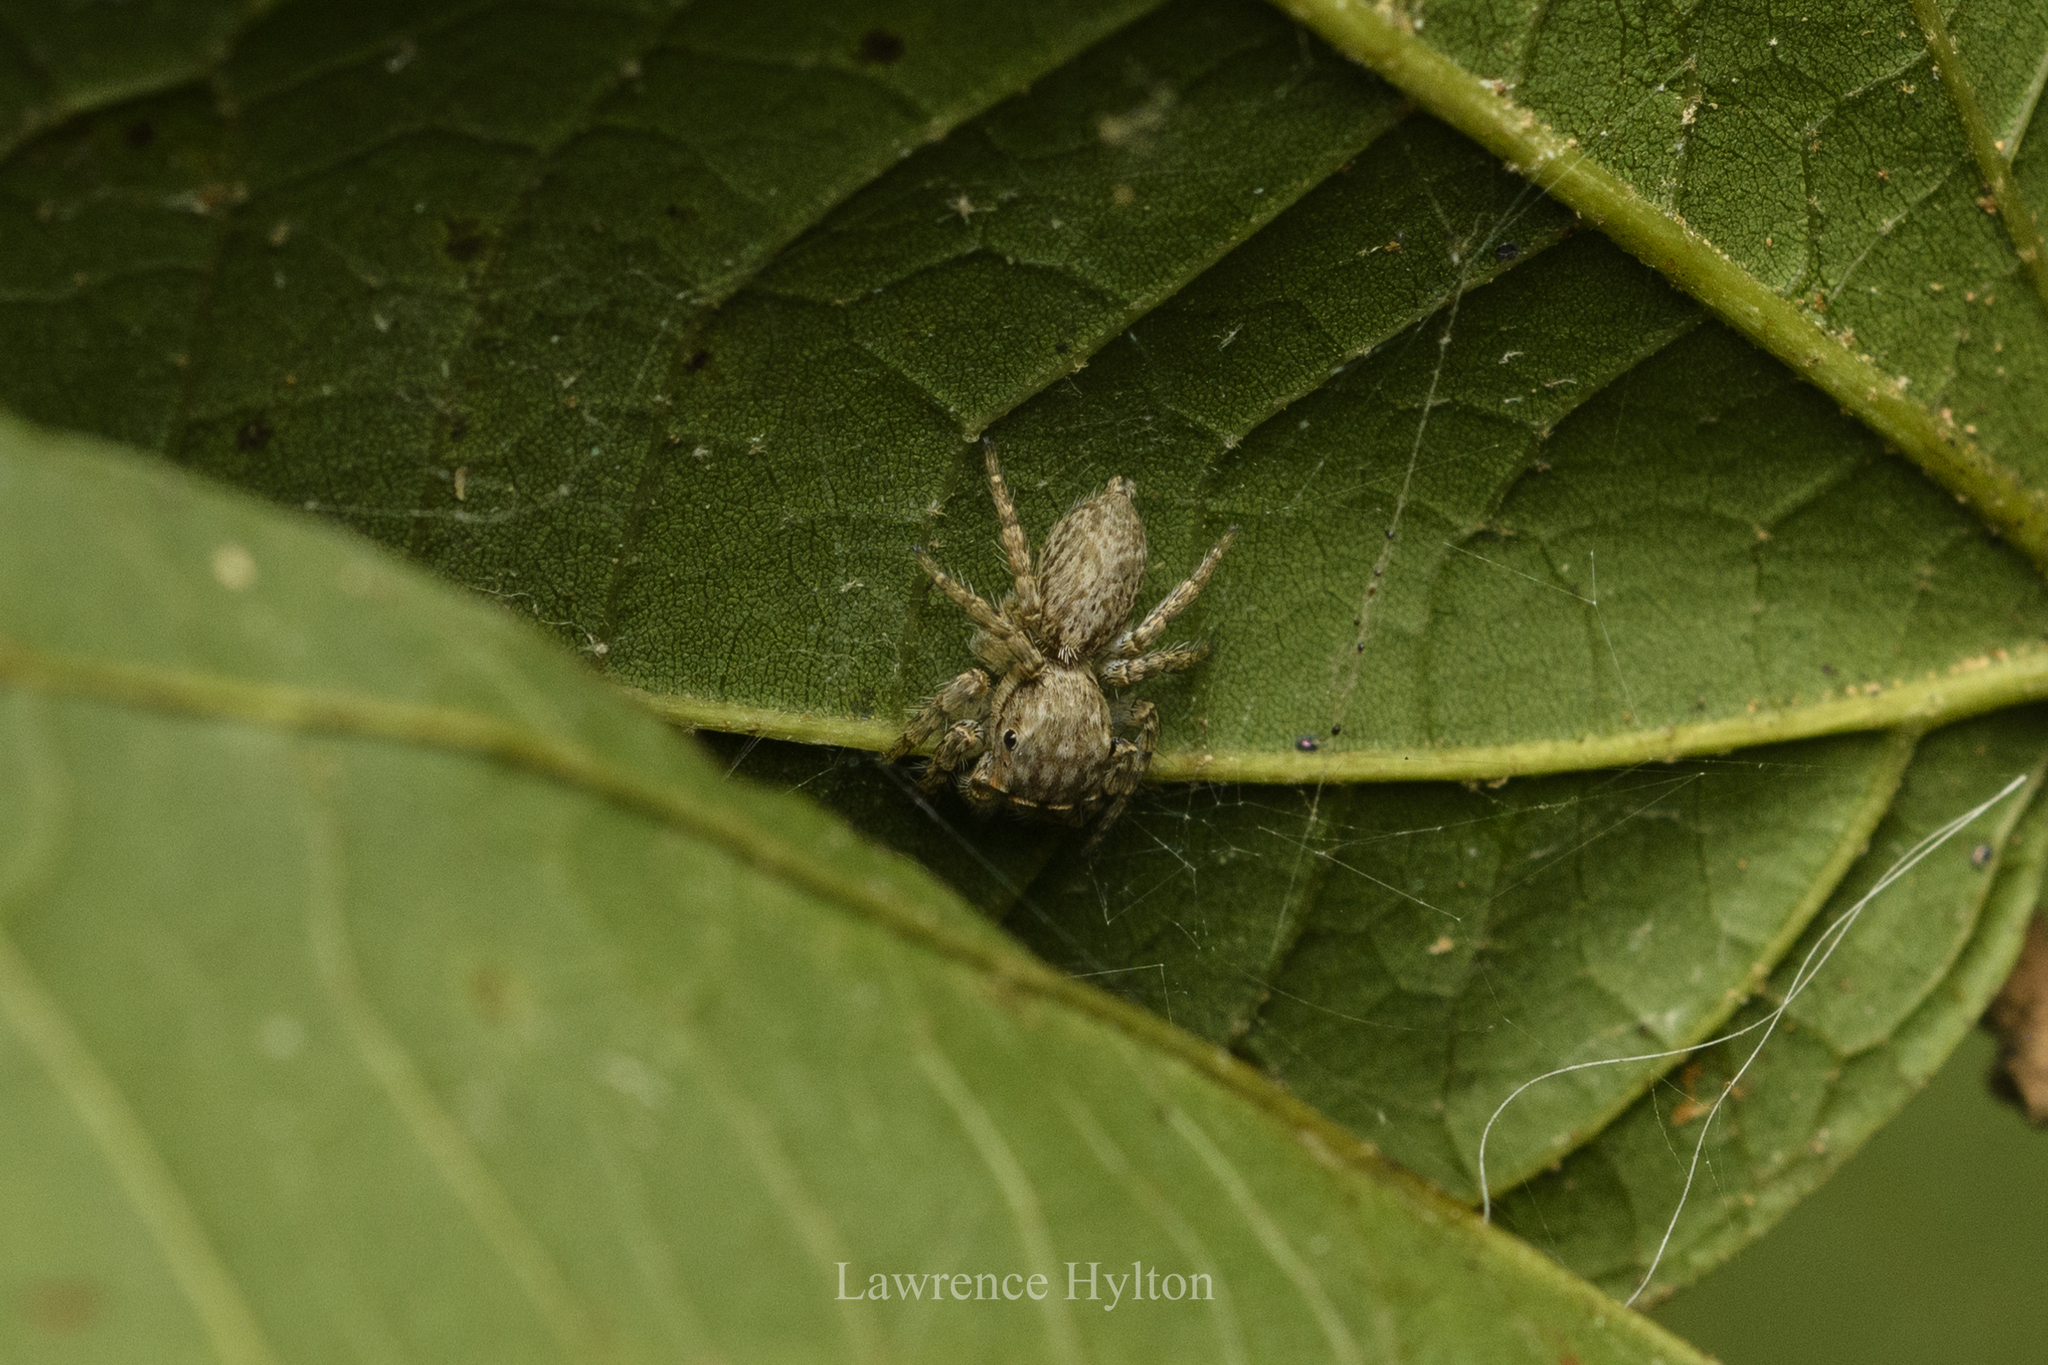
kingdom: Animalia
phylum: Arthropoda
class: Arachnida
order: Araneae
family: Salticidae
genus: Cytaea
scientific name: Cytaea maoming
